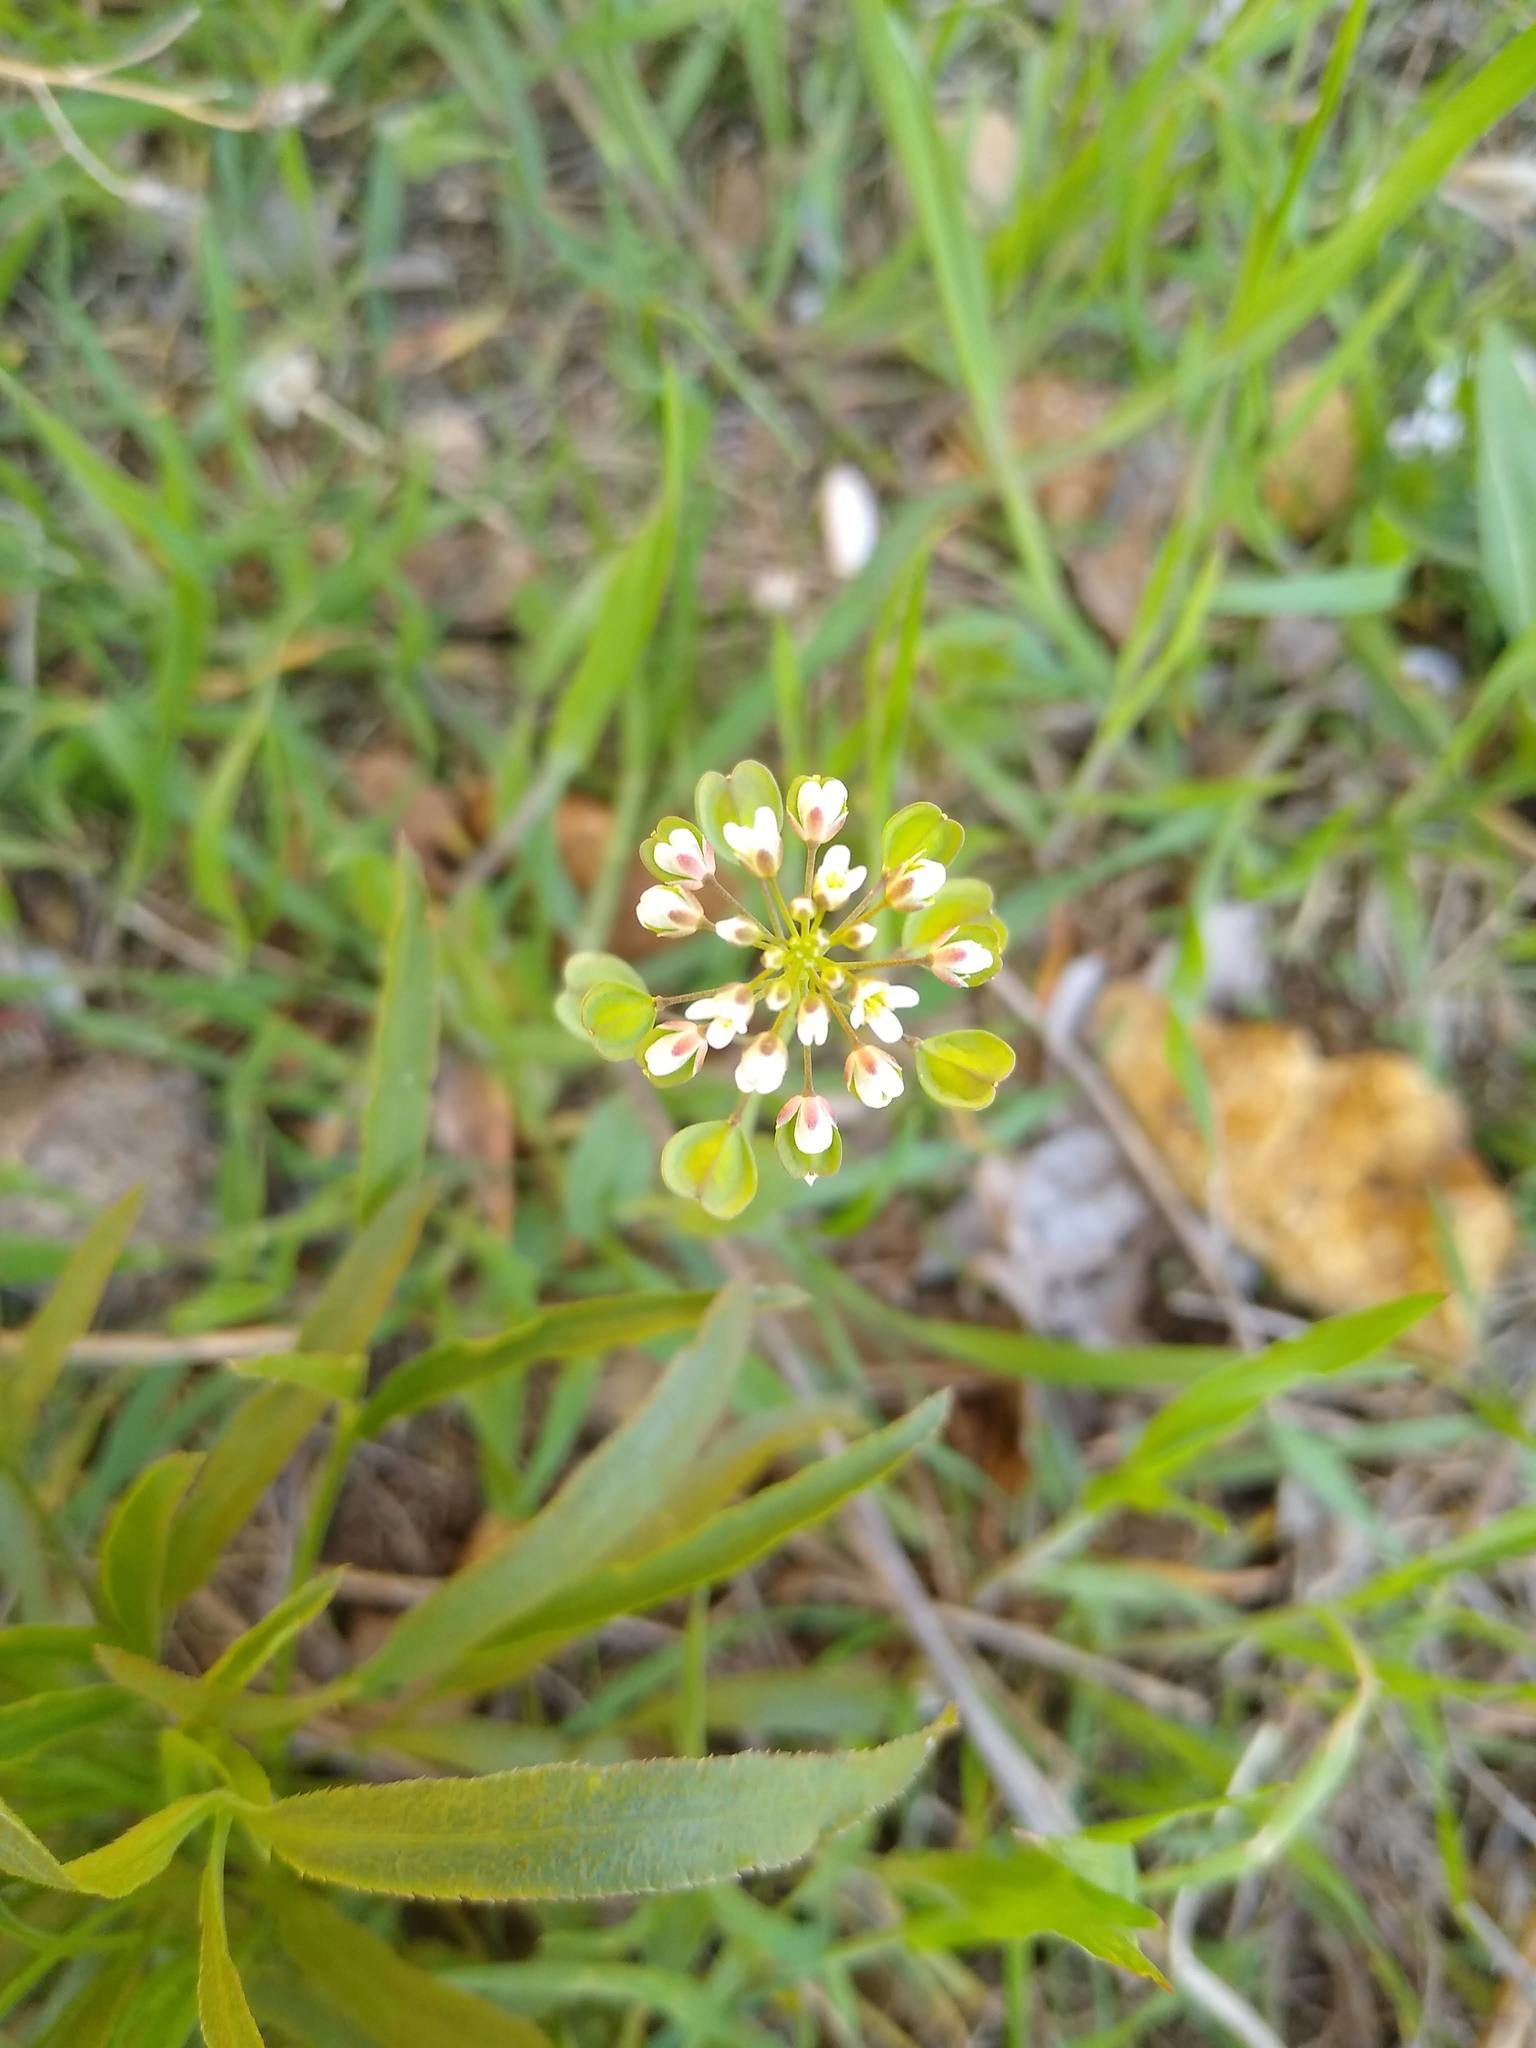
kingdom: Plantae
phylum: Tracheophyta
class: Magnoliopsida
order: Brassicales
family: Brassicaceae
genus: Noccaea
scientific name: Noccaea perfoliata
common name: Perfoliate pennycress
